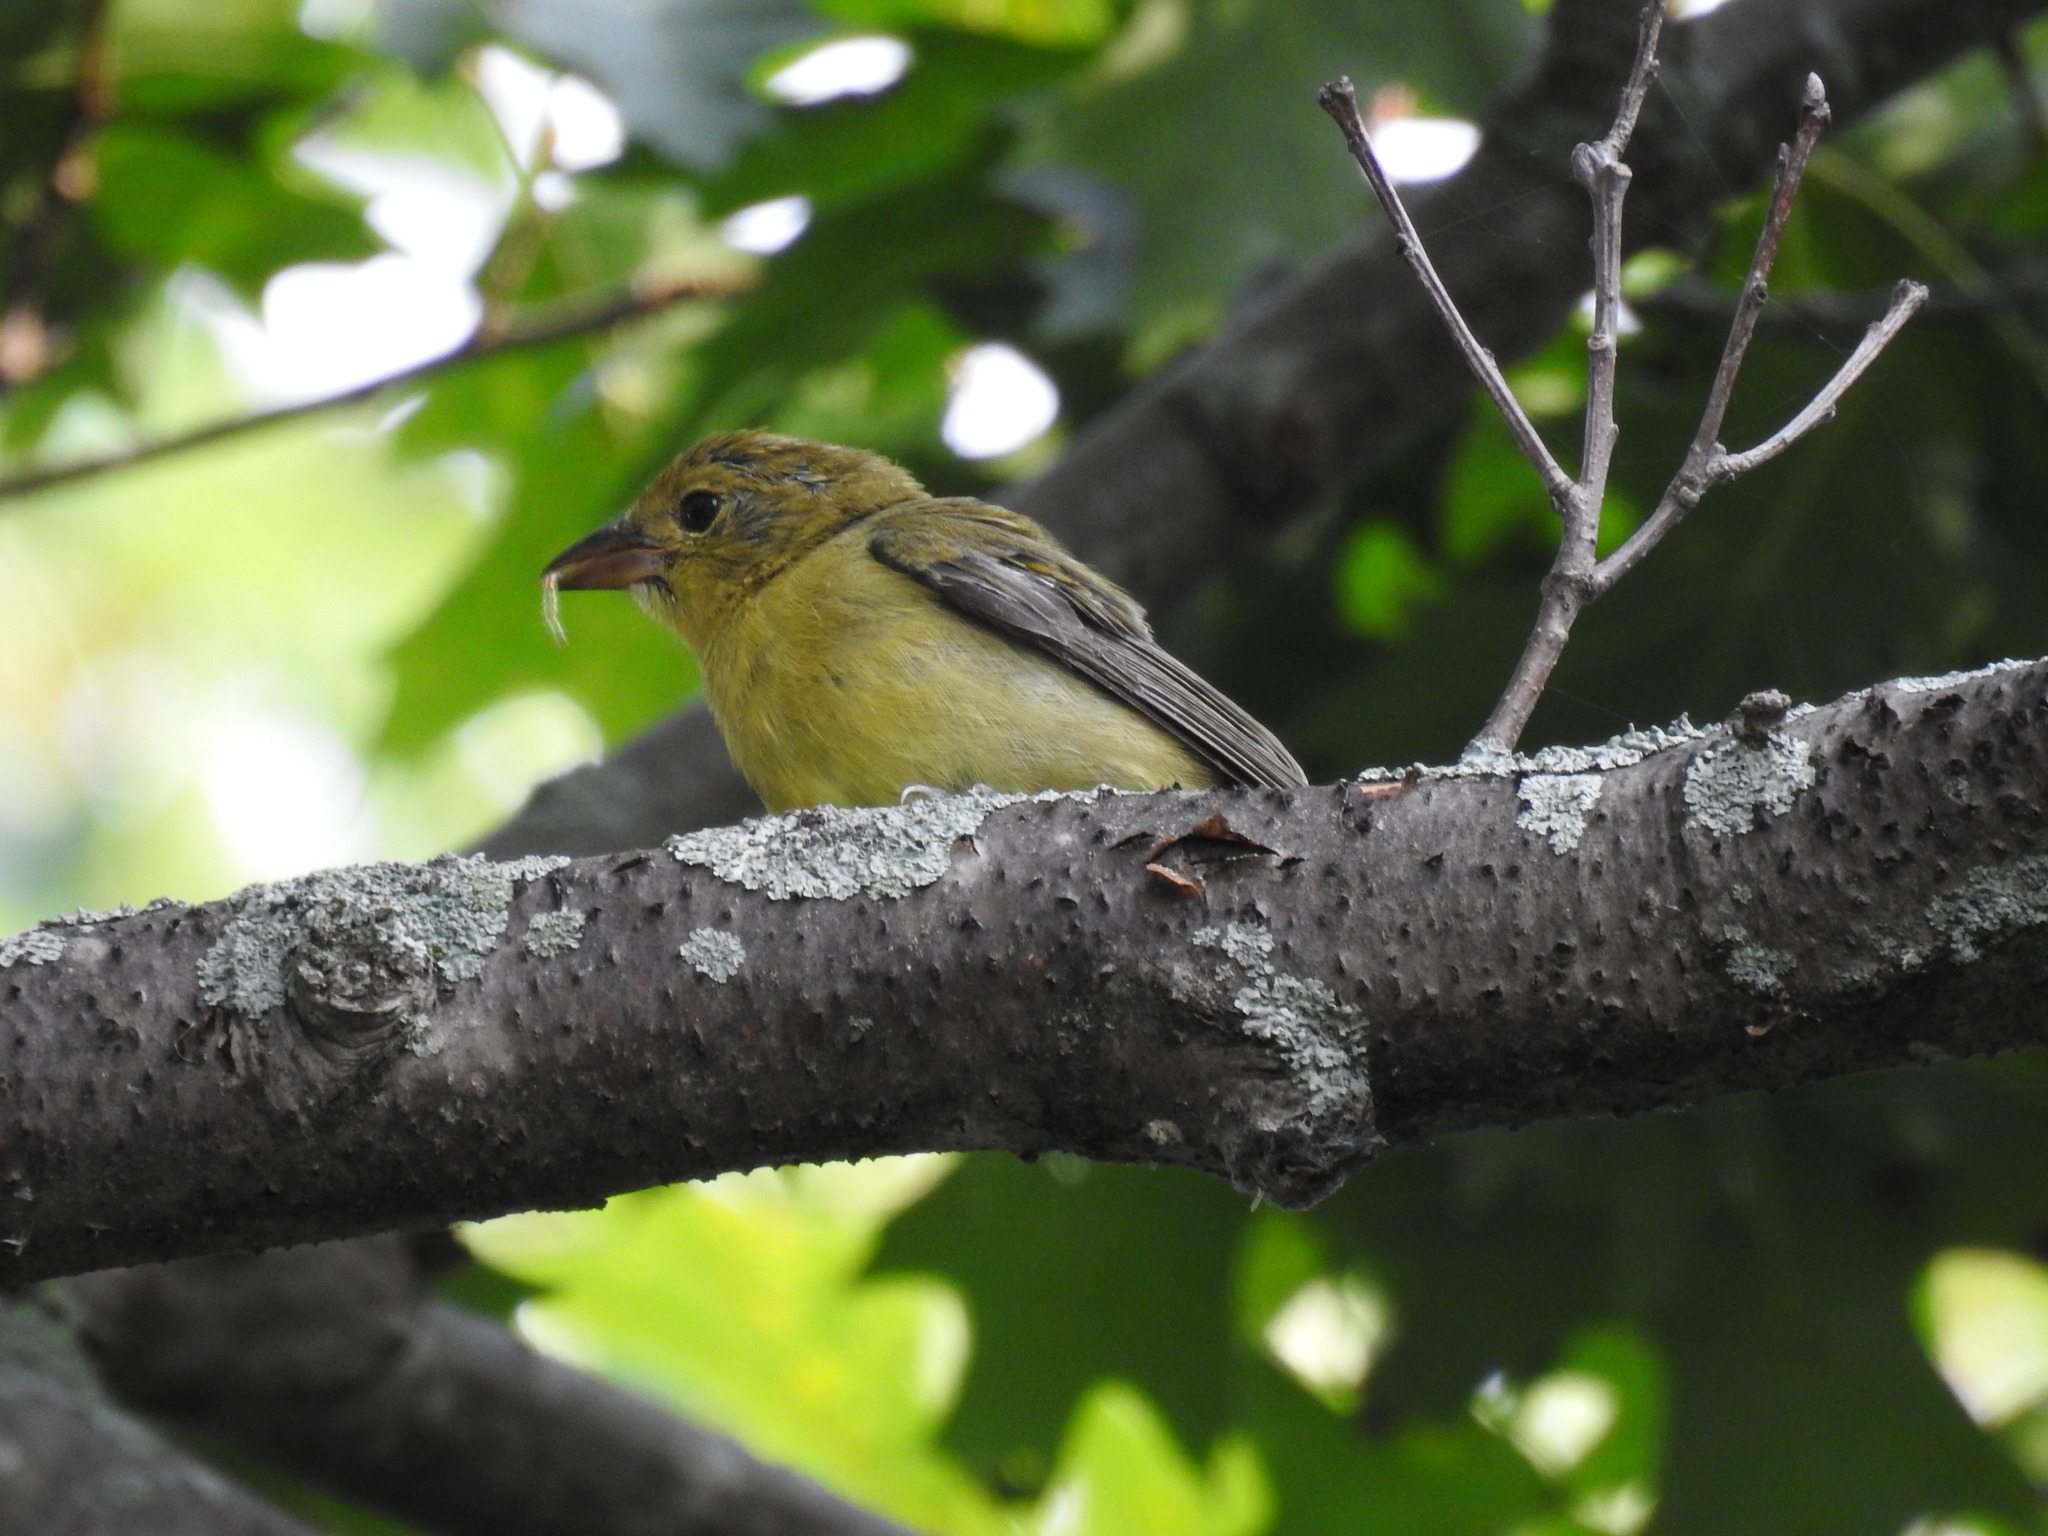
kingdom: Animalia
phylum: Chordata
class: Aves
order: Passeriformes
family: Cardinalidae
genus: Piranga
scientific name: Piranga olivacea
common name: Scarlet tanager
